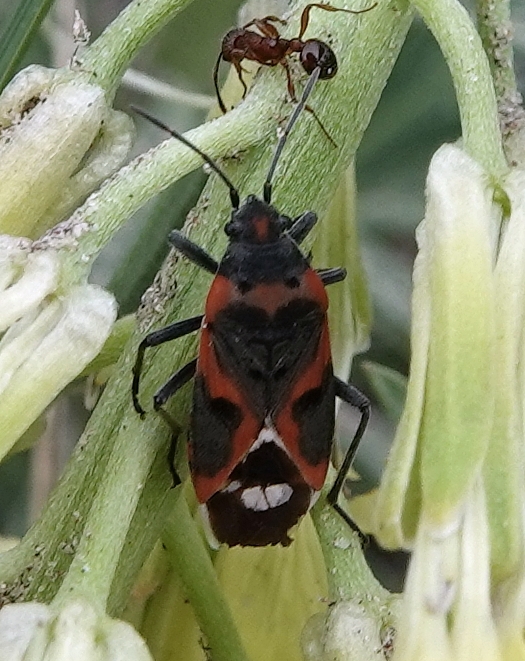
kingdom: Animalia
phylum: Arthropoda
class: Insecta
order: Hemiptera
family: Lygaeidae
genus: Lygaeus
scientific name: Lygaeus kalmii
